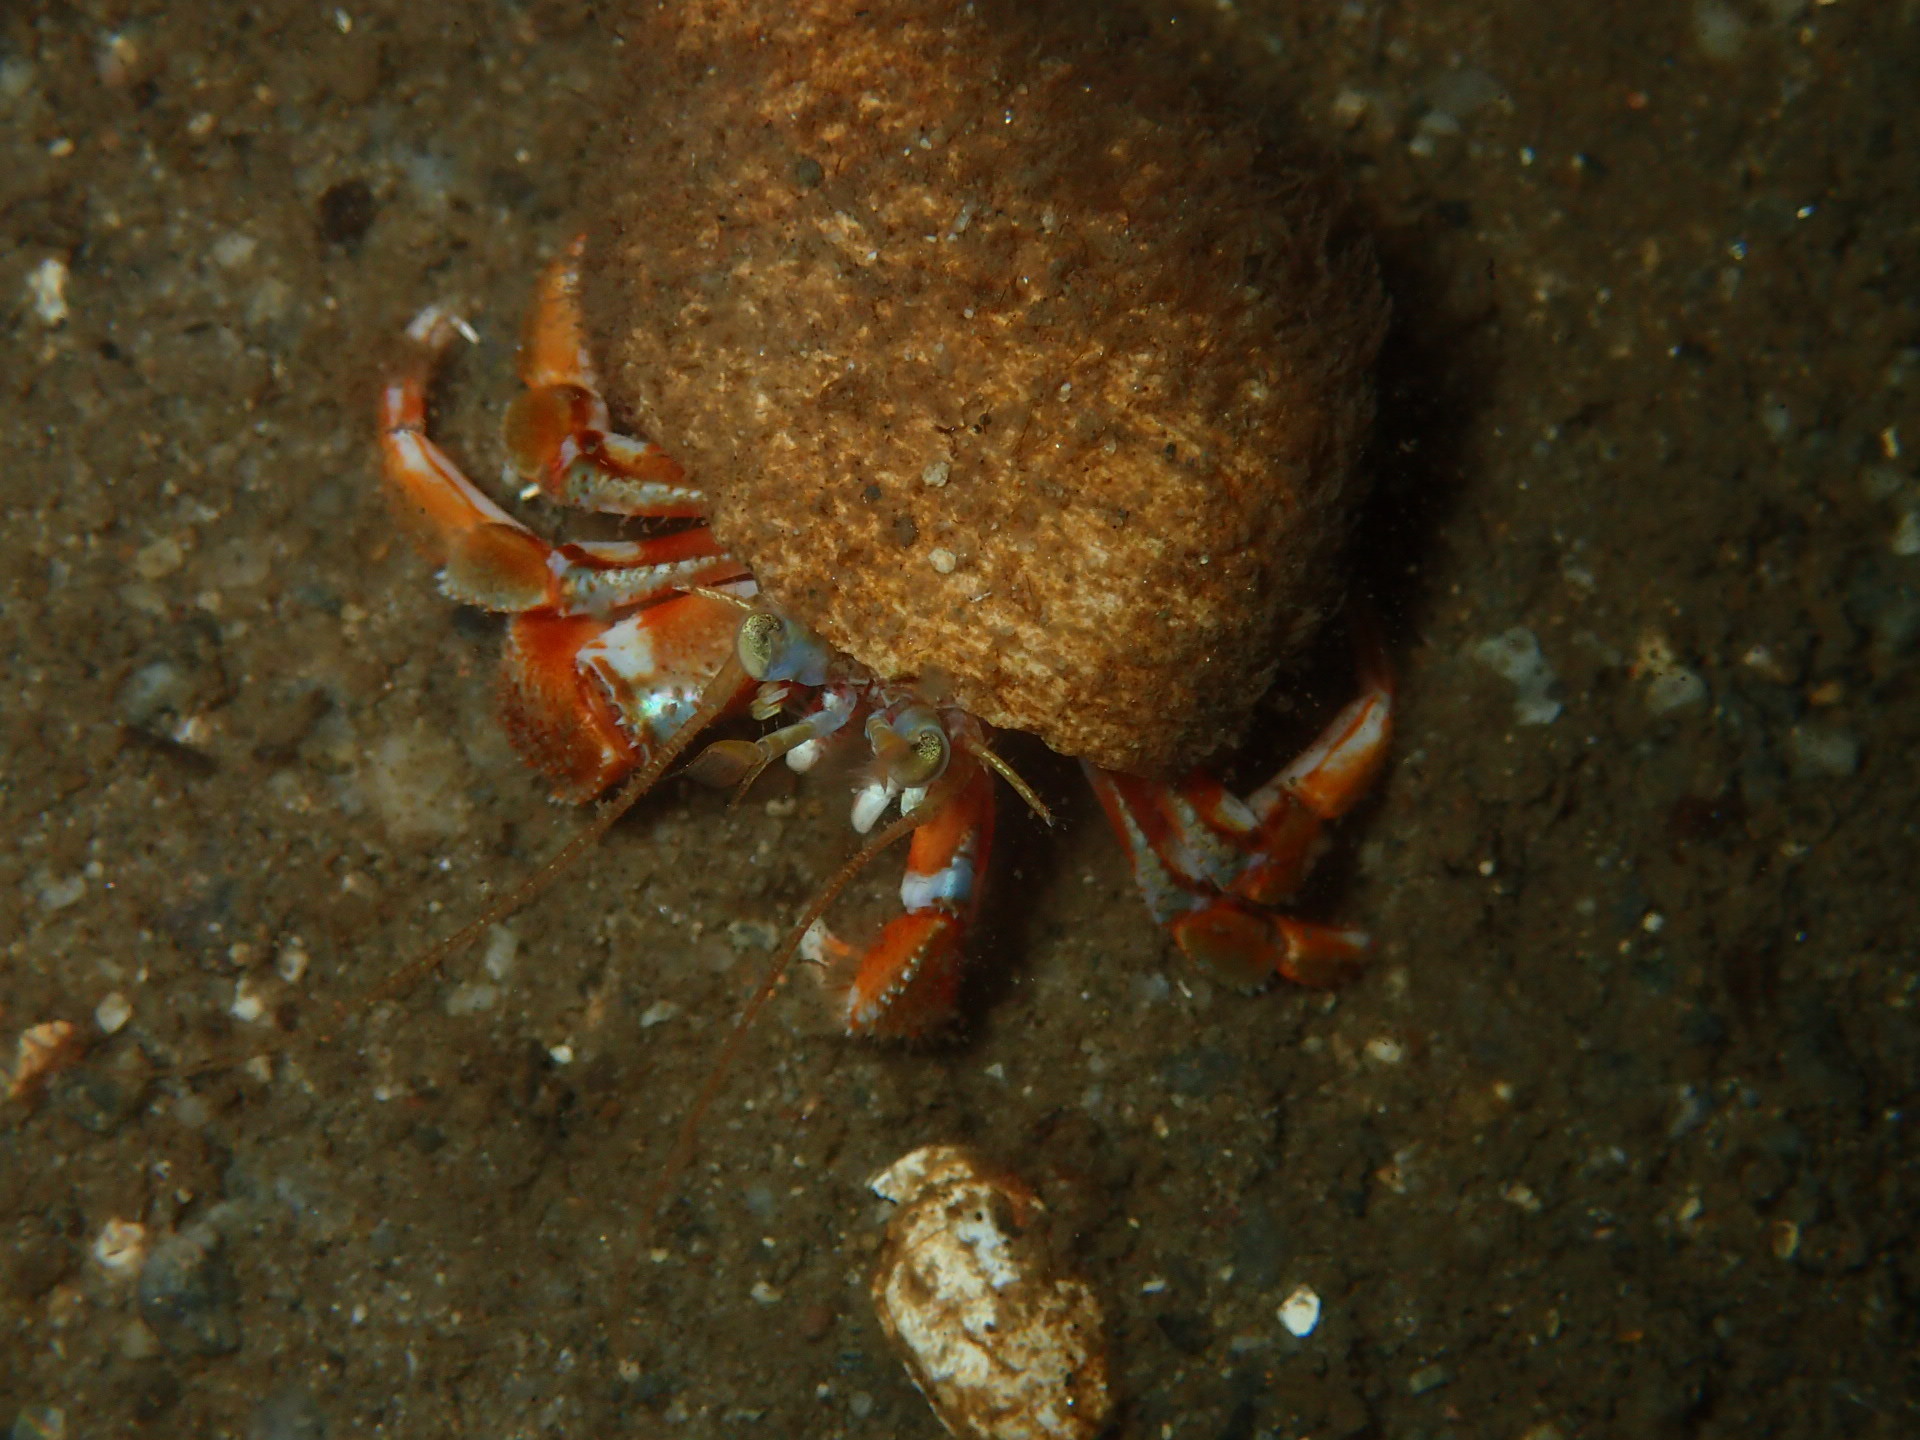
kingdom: Animalia
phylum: Arthropoda
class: Malacostraca
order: Decapoda
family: Paguridae
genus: Pagurus
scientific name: Pagurus acadianus
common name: Acadian hermit crab
